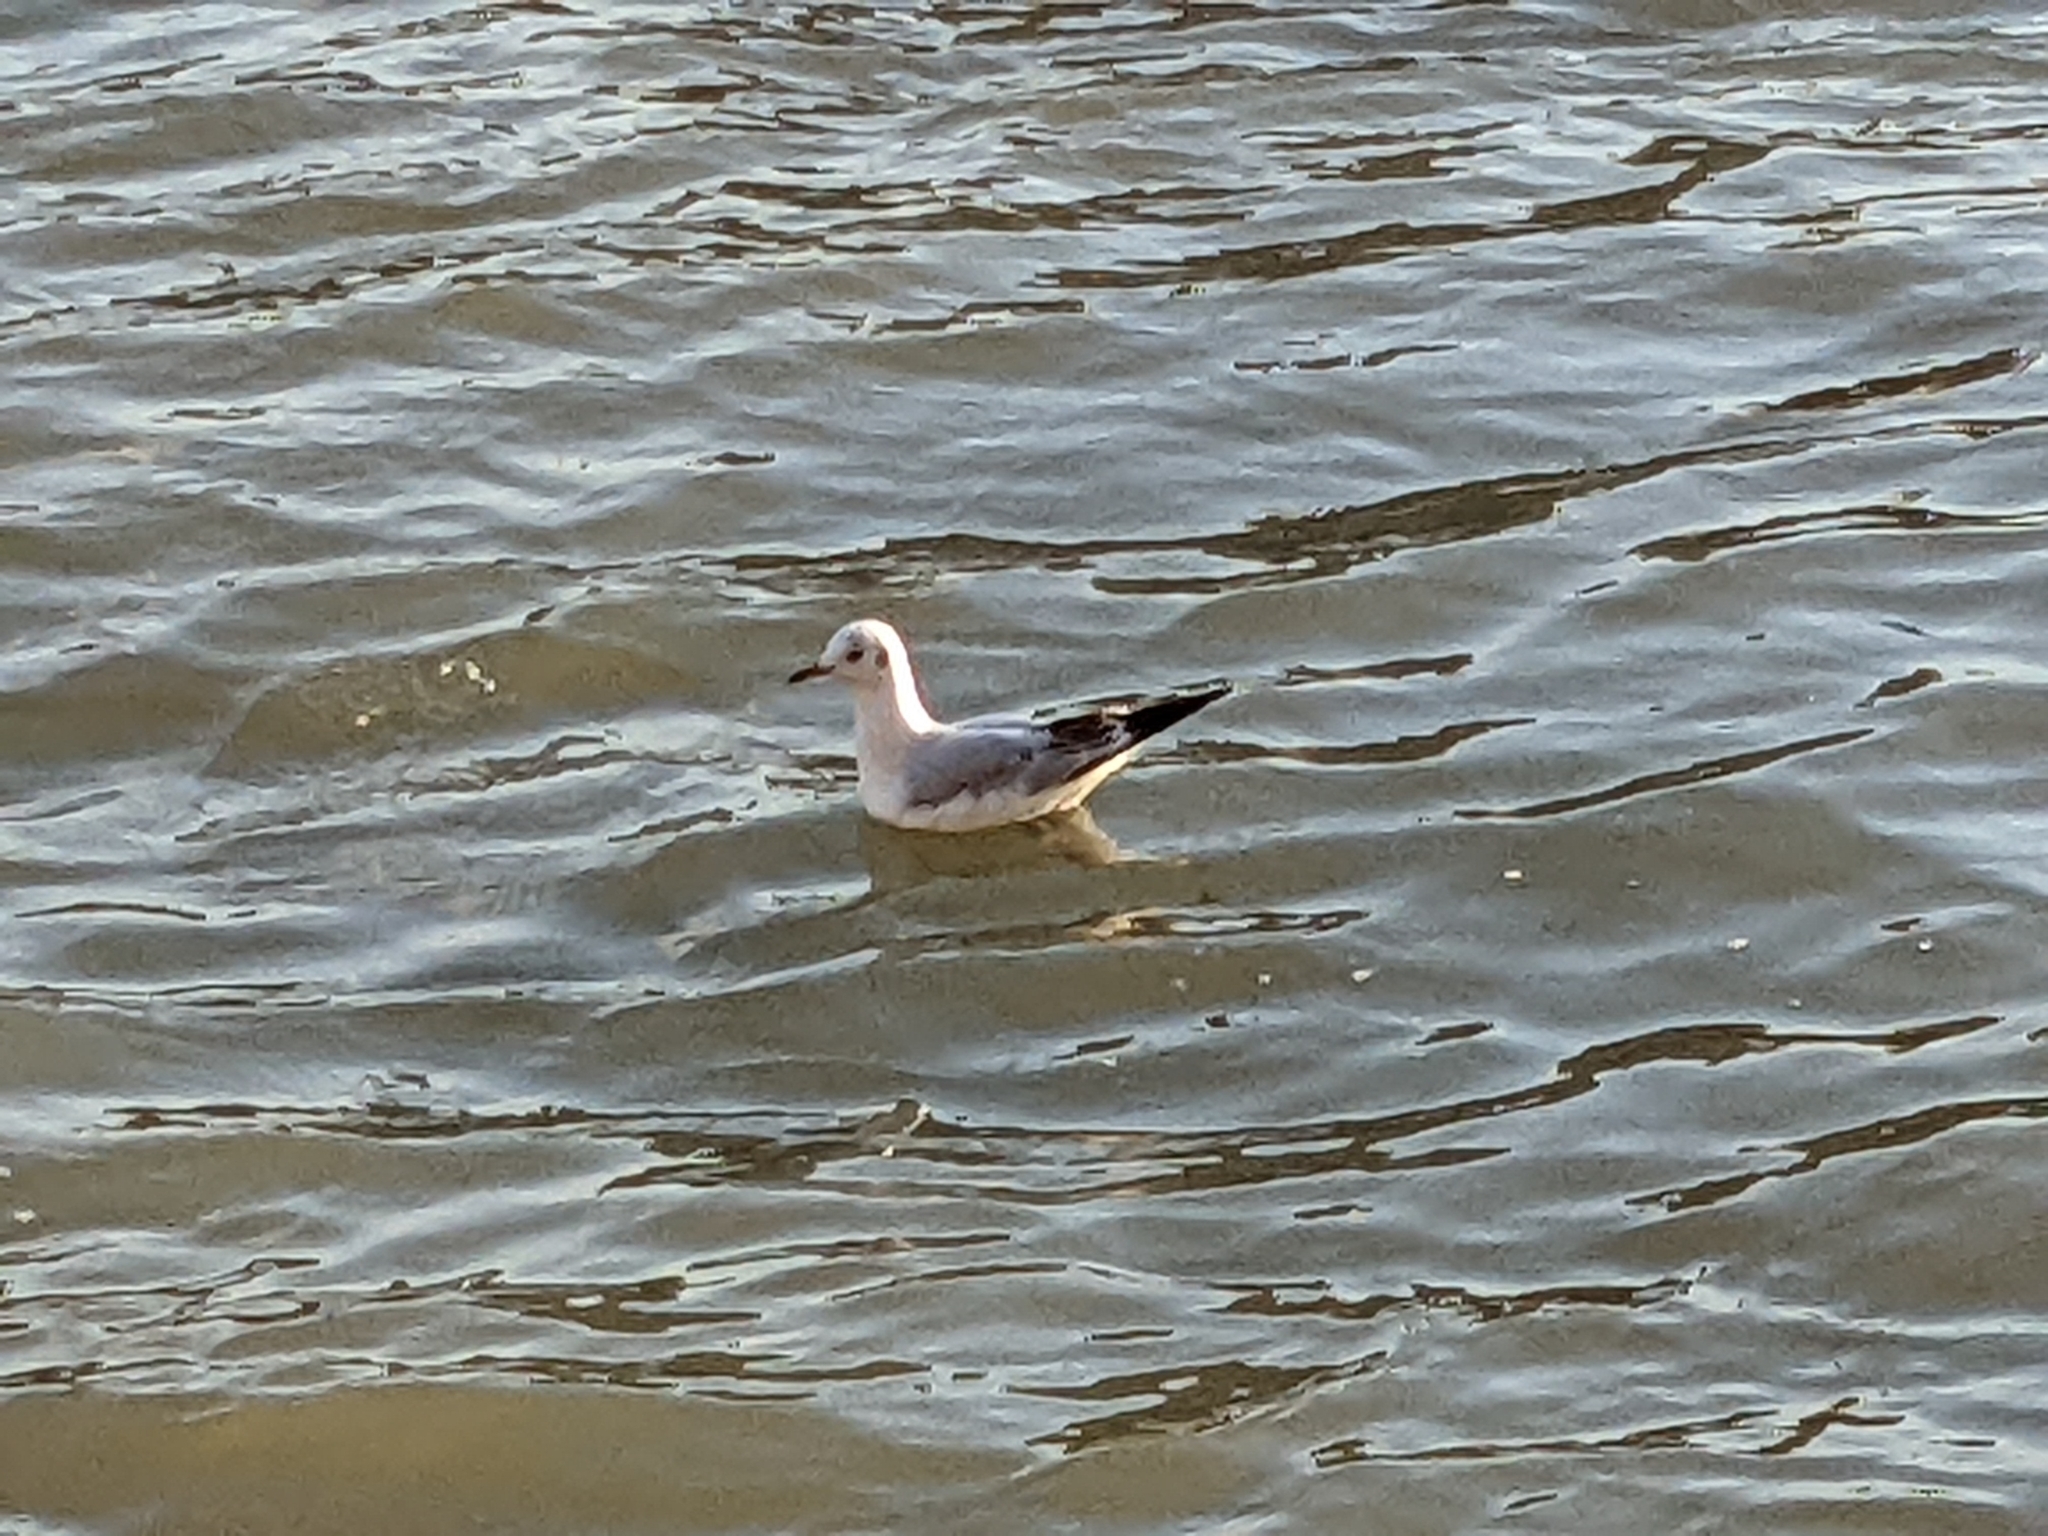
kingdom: Animalia
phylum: Chordata
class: Aves
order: Charadriiformes
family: Laridae
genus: Chroicocephalus
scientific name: Chroicocephalus ridibundus
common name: Black-headed gull
